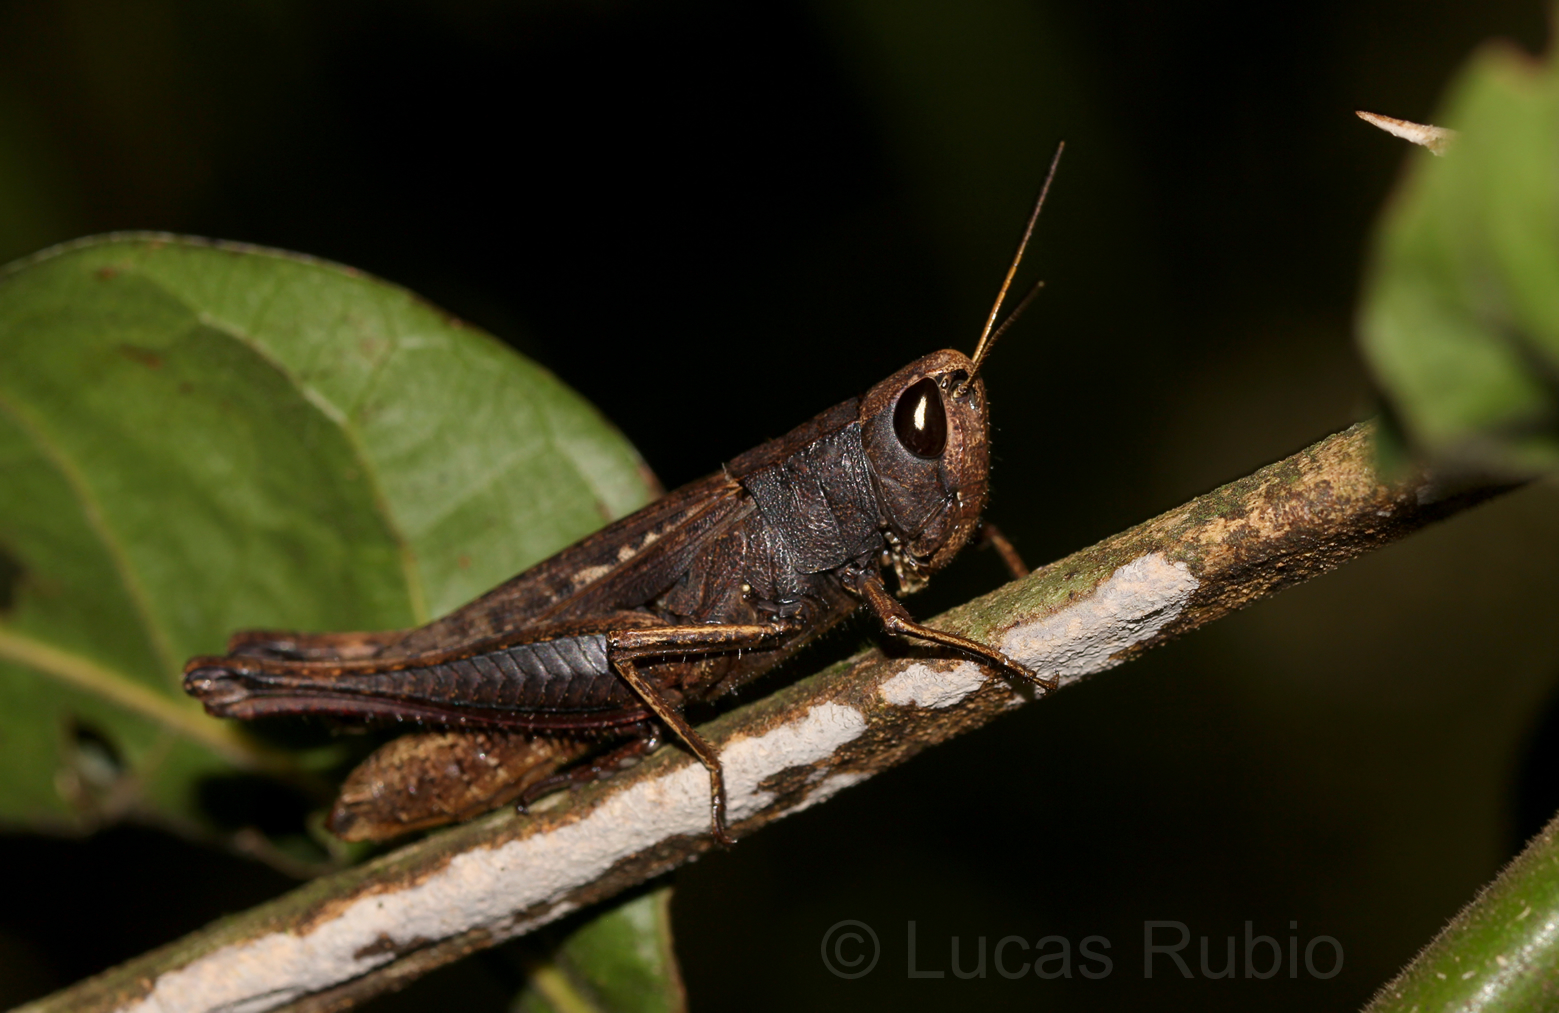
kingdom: Animalia
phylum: Arthropoda
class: Insecta
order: Orthoptera
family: Acrididae
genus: Amblytropidia
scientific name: Amblytropidia robusta
